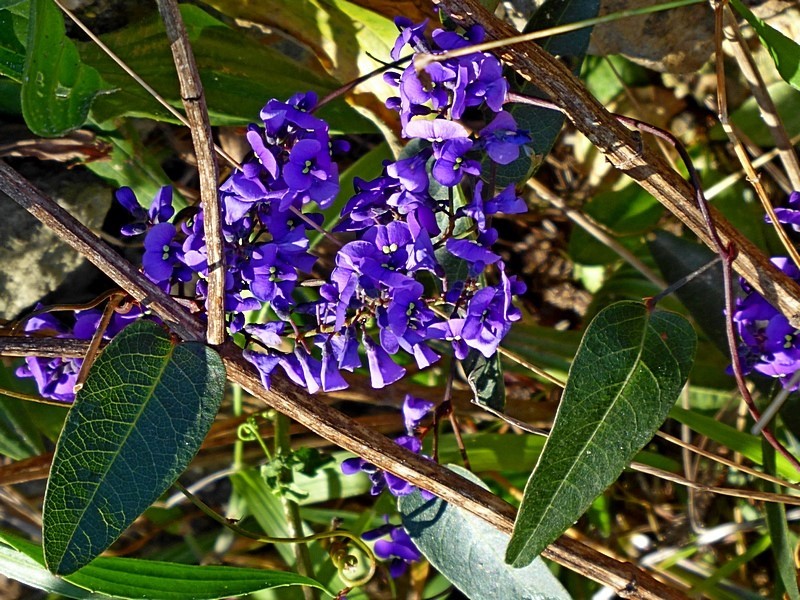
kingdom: Plantae
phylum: Tracheophyta
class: Magnoliopsida
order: Fabales
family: Fabaceae
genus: Hardenbergia
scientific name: Hardenbergia violacea
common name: Coral-pea
